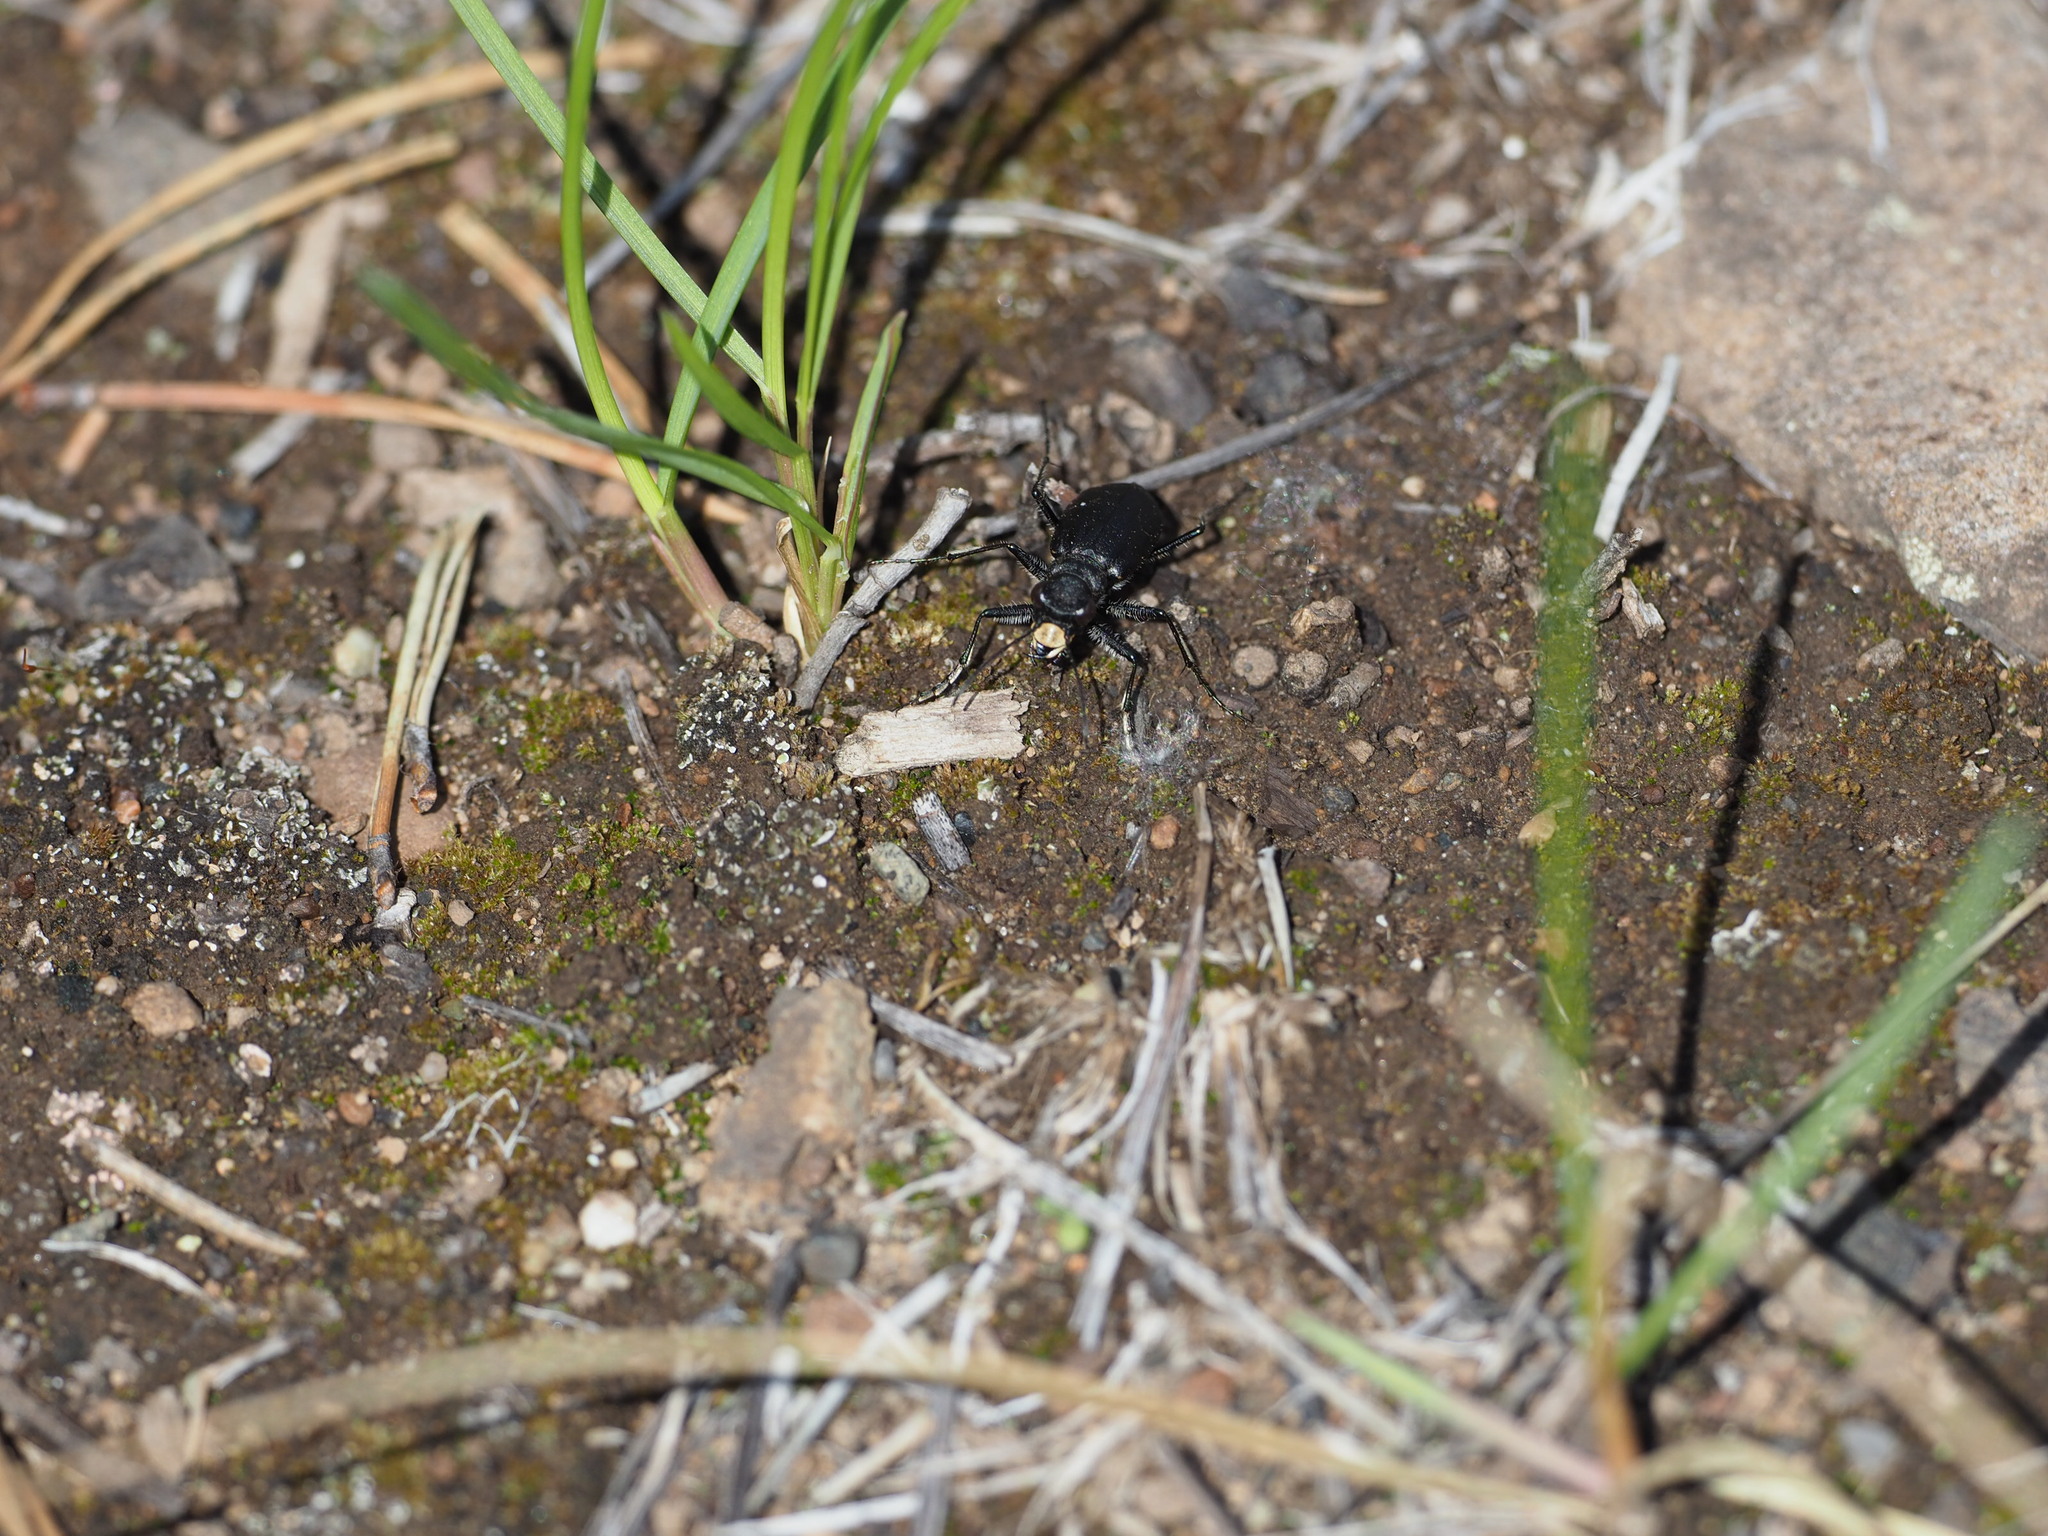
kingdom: Animalia
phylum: Arthropoda
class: Insecta
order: Coleoptera
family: Carabidae
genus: Cicindela
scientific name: Cicindela longilabris
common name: Boreal long-lipped tiger beetle
